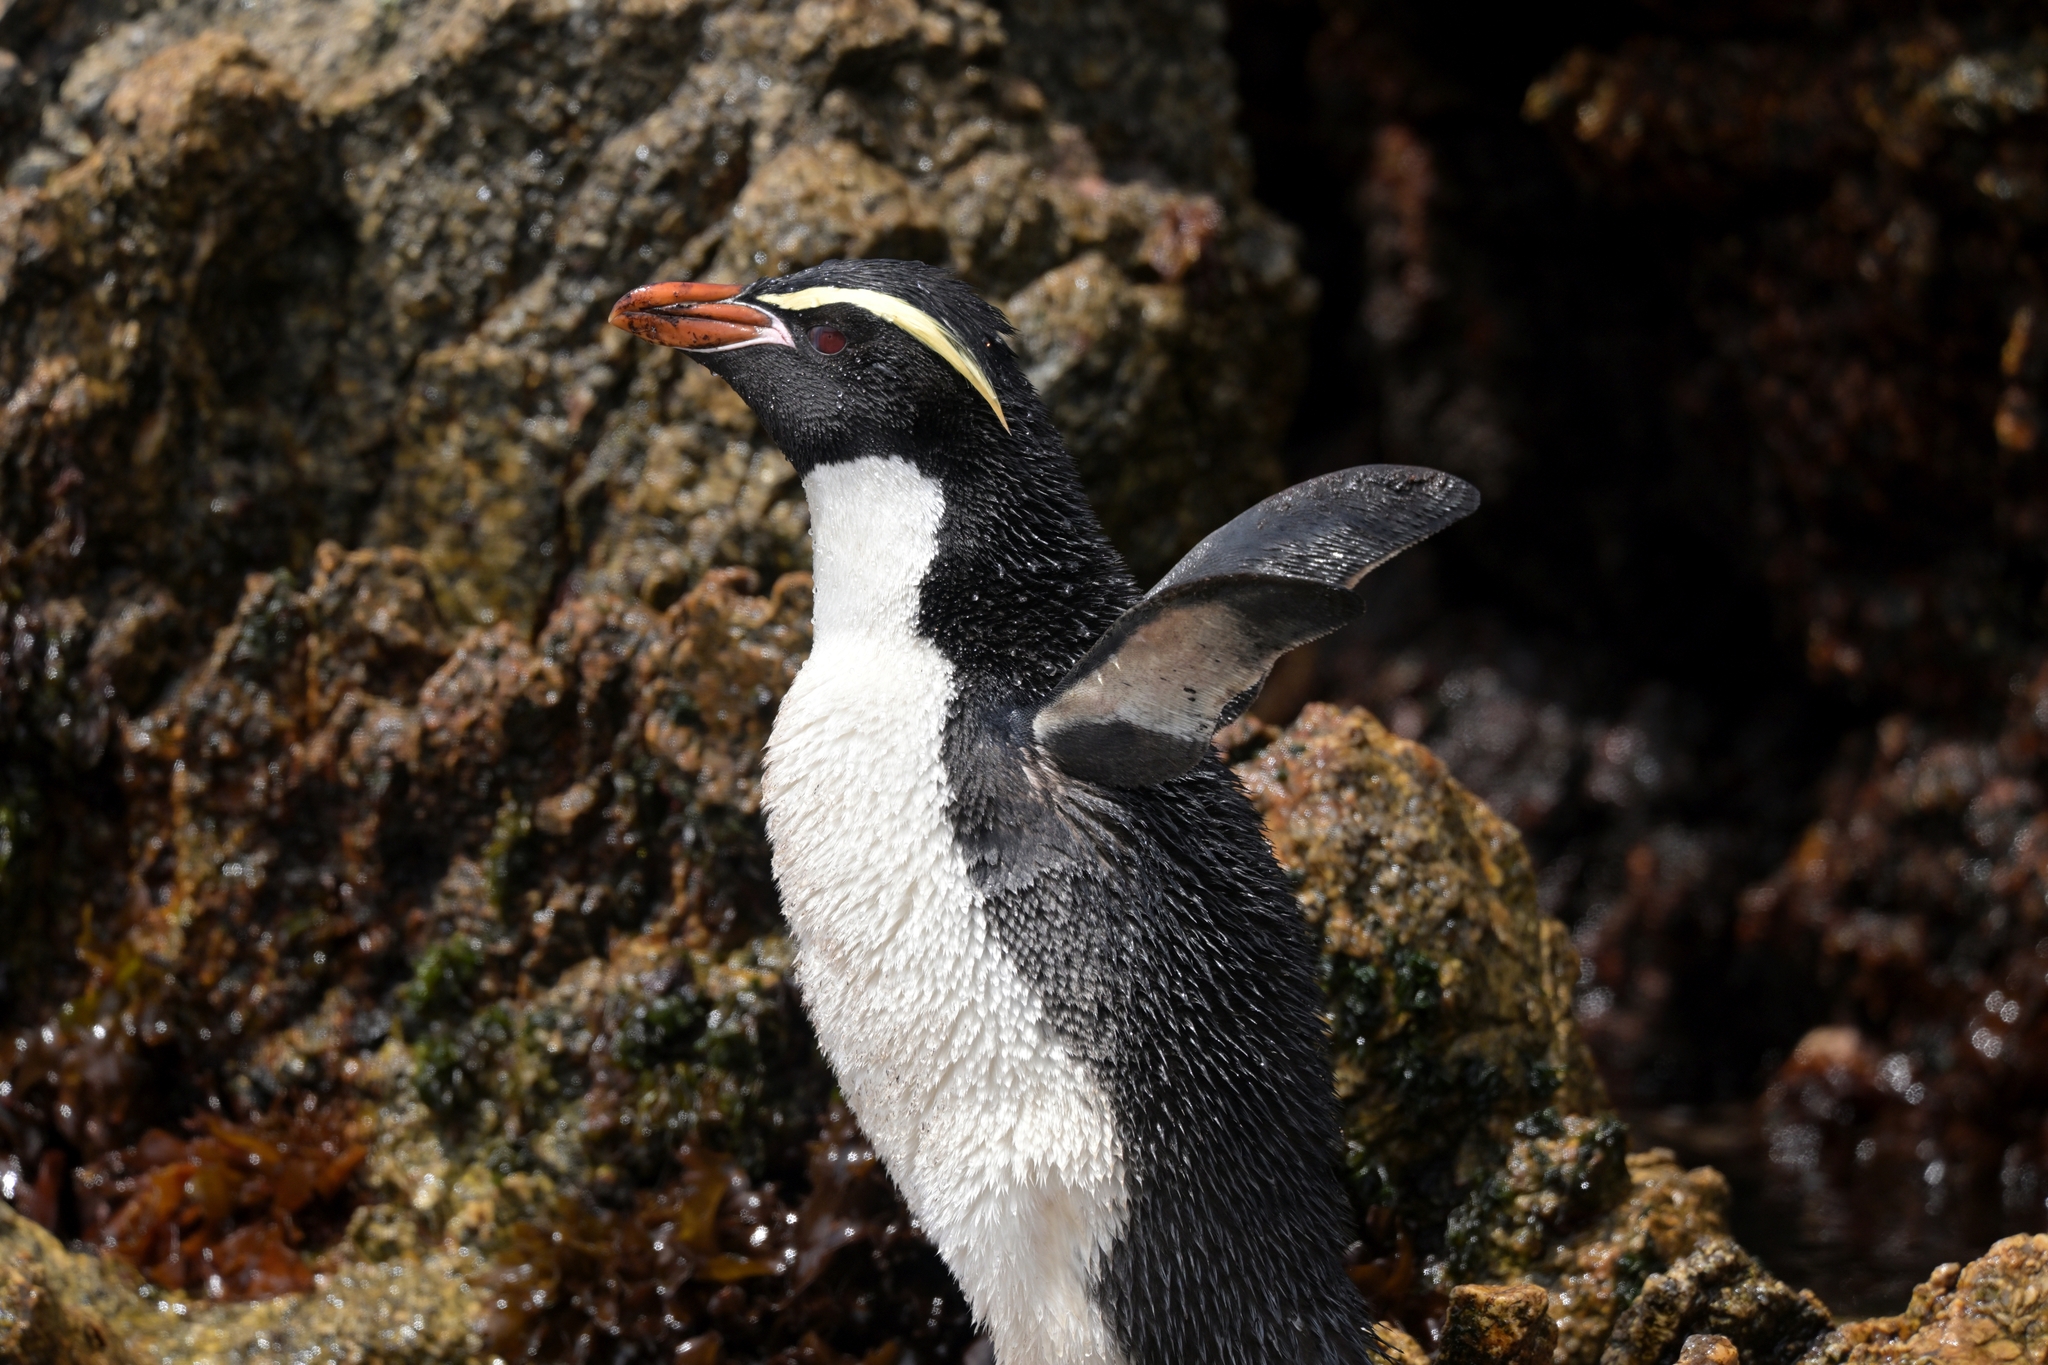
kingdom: Animalia
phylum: Chordata
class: Aves
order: Sphenisciformes
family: Spheniscidae
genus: Eudyptes
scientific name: Eudyptes robustus
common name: Snares penguin
